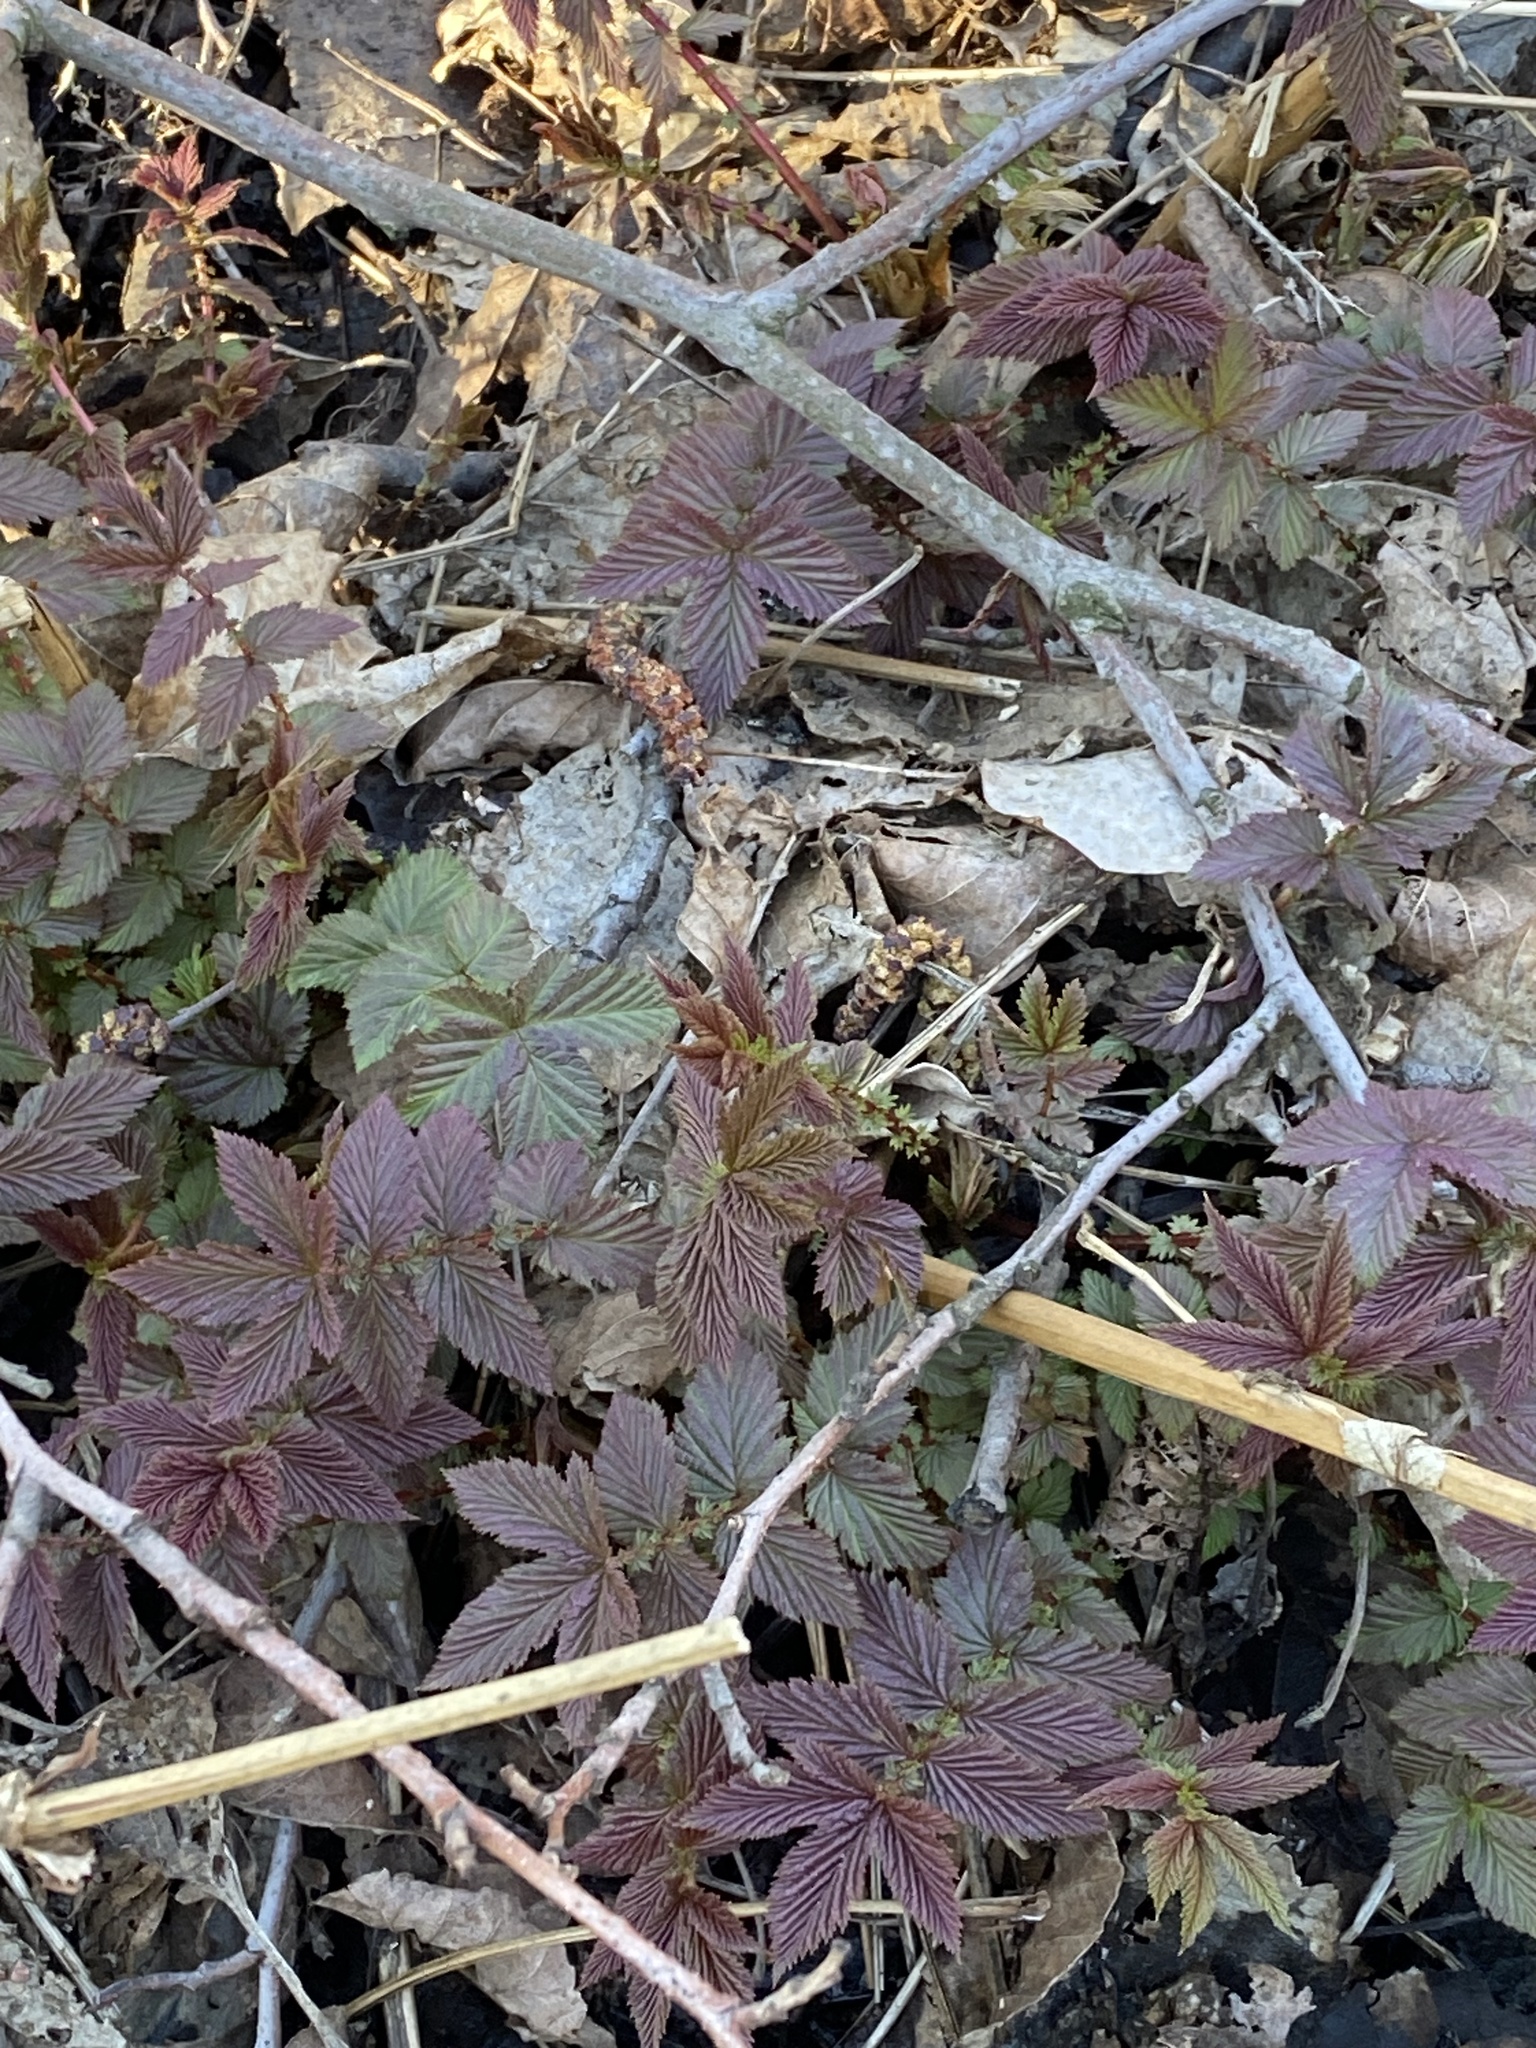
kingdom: Plantae
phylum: Tracheophyta
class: Magnoliopsida
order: Rosales
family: Rosaceae
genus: Filipendula
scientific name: Filipendula ulmaria
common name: Meadowsweet
